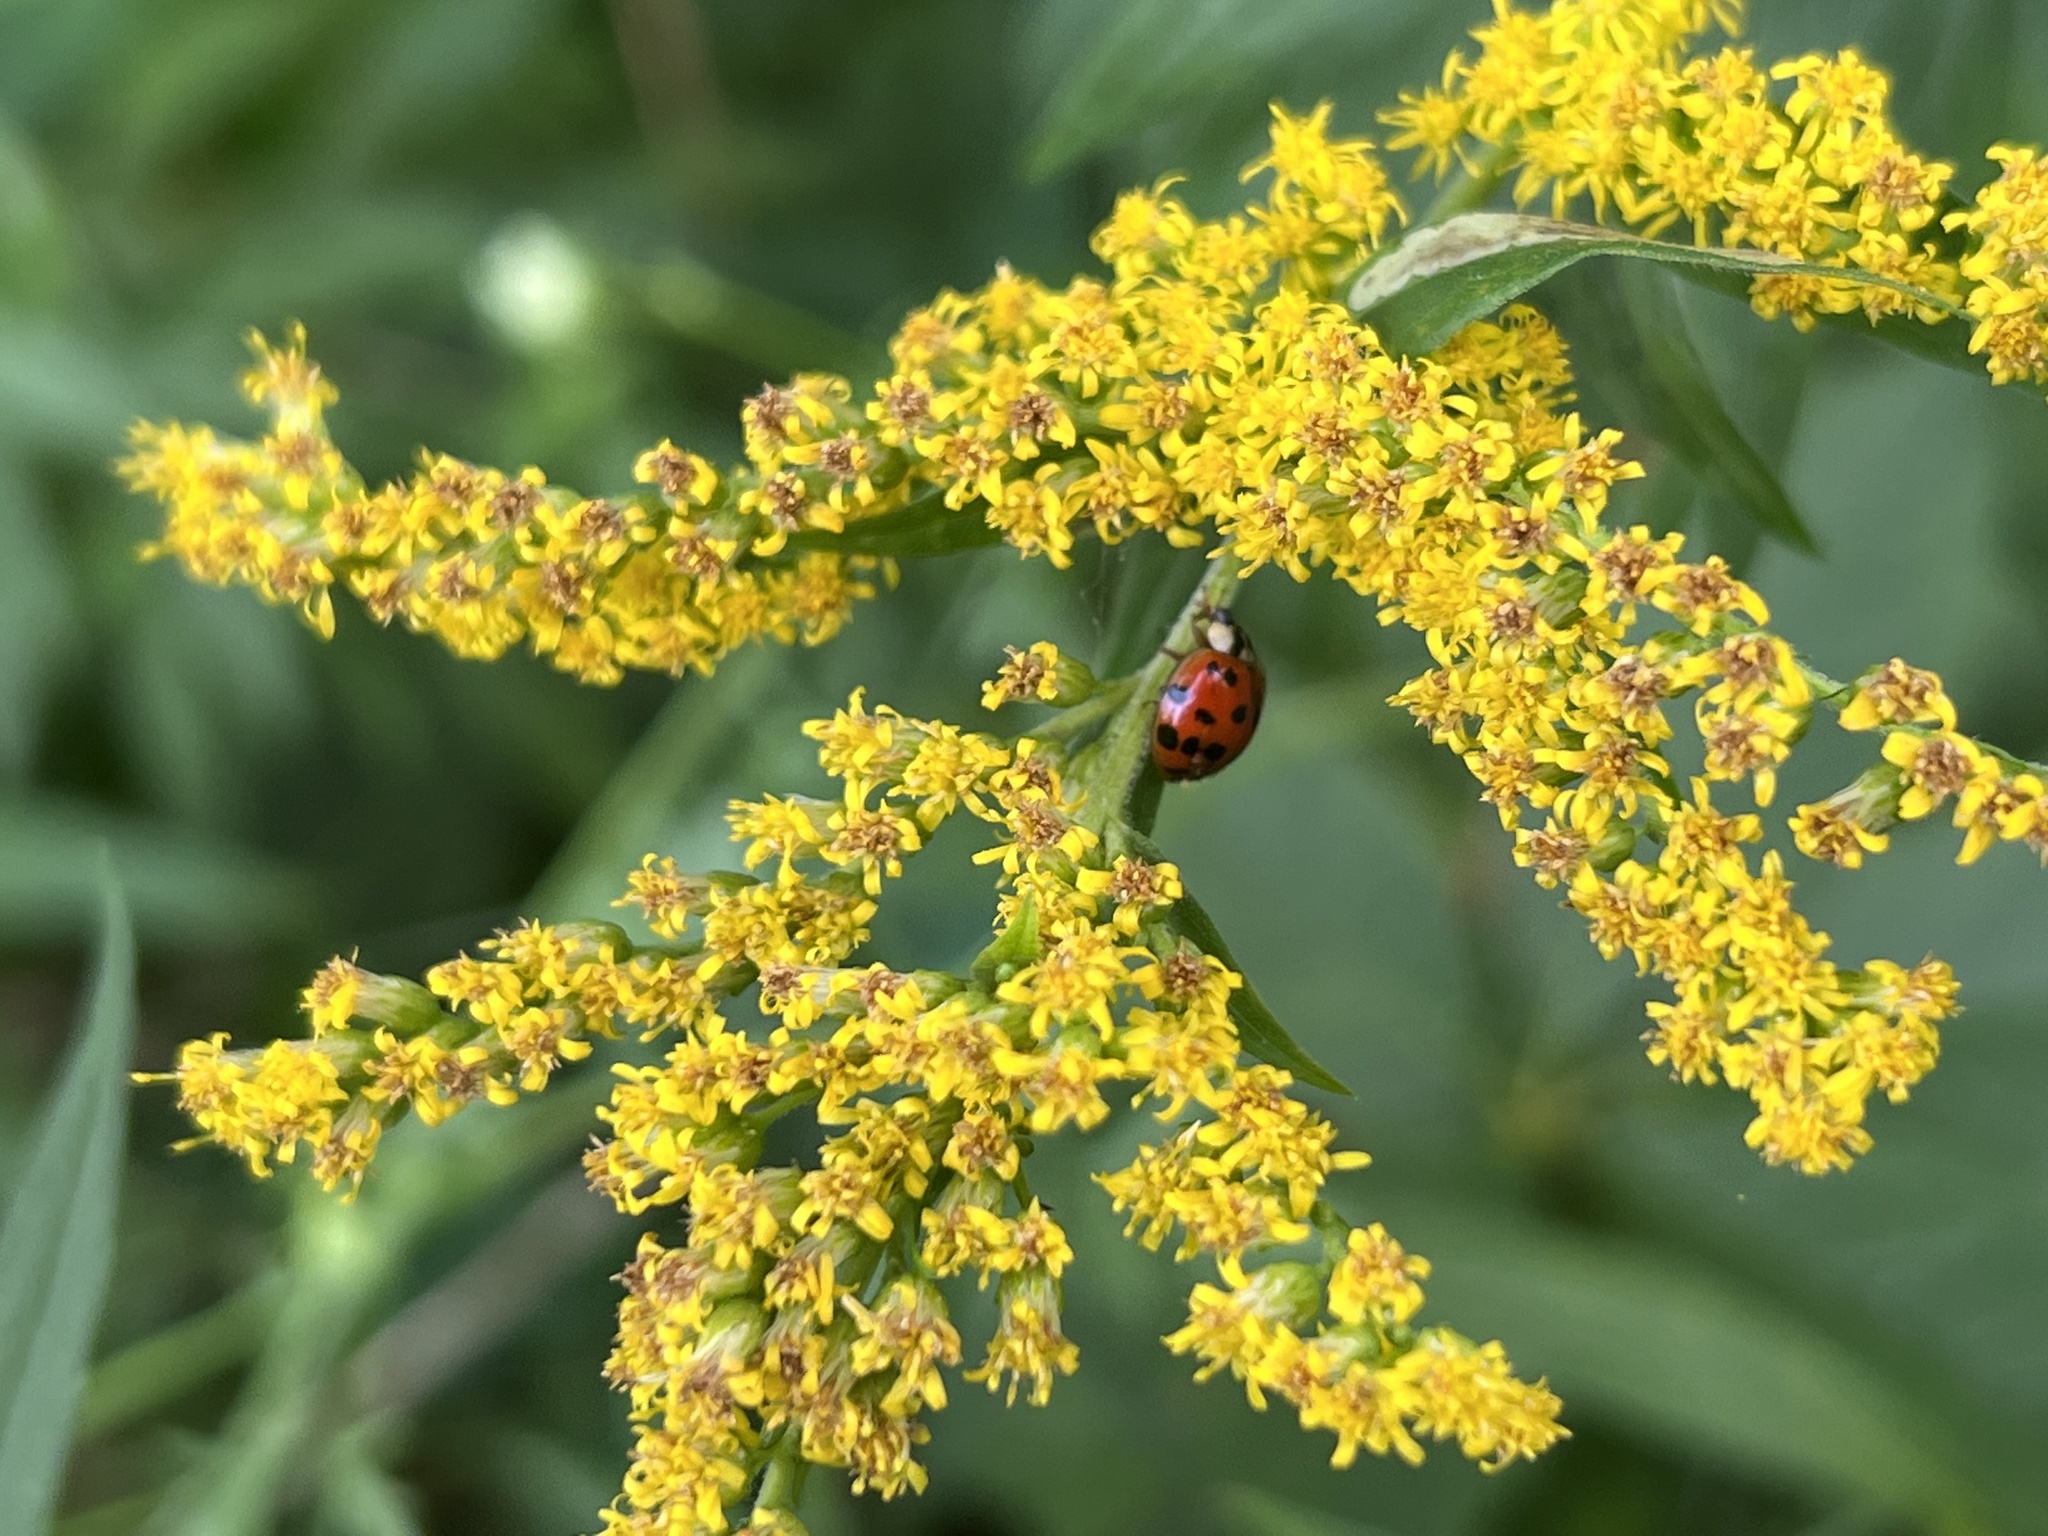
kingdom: Animalia
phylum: Arthropoda
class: Insecta
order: Coleoptera
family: Coccinellidae
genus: Harmonia
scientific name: Harmonia axyridis
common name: Harlequin ladybird
